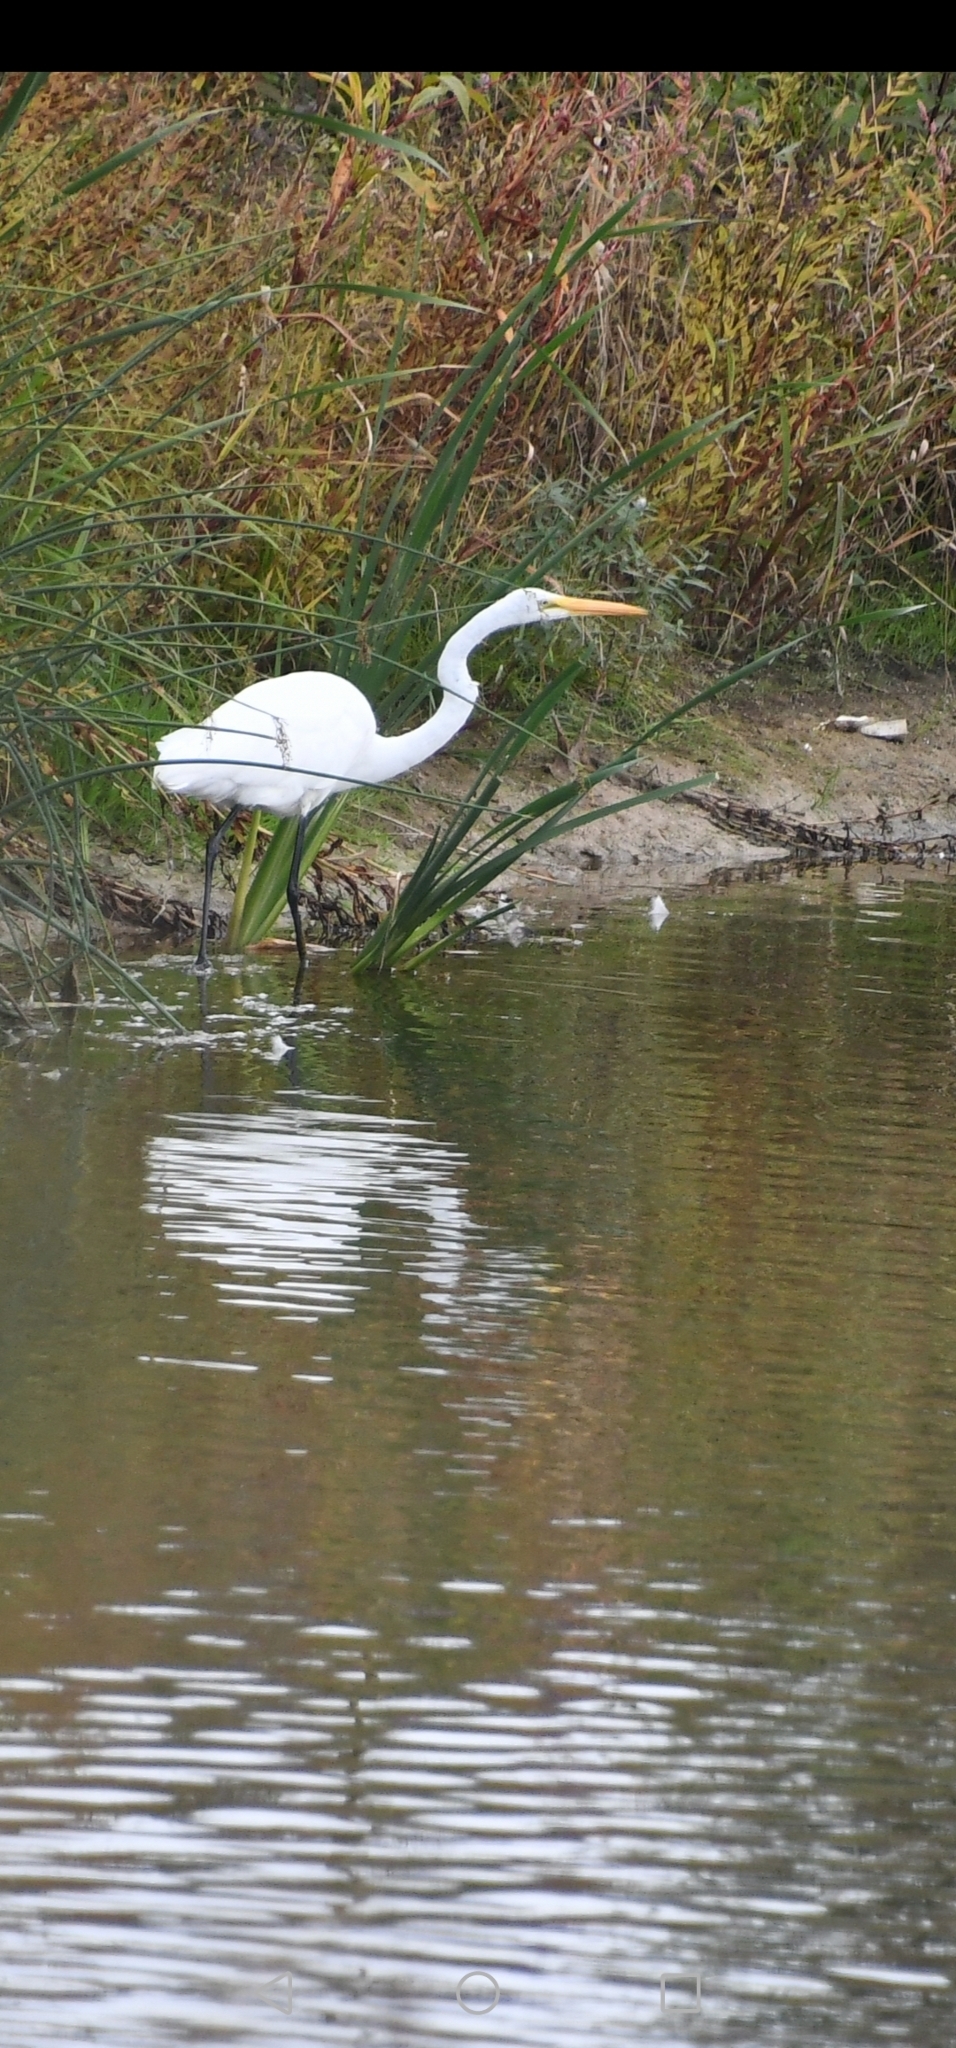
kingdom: Animalia
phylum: Chordata
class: Aves
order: Pelecaniformes
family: Ardeidae
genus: Ardea
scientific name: Ardea alba
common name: Great egret
